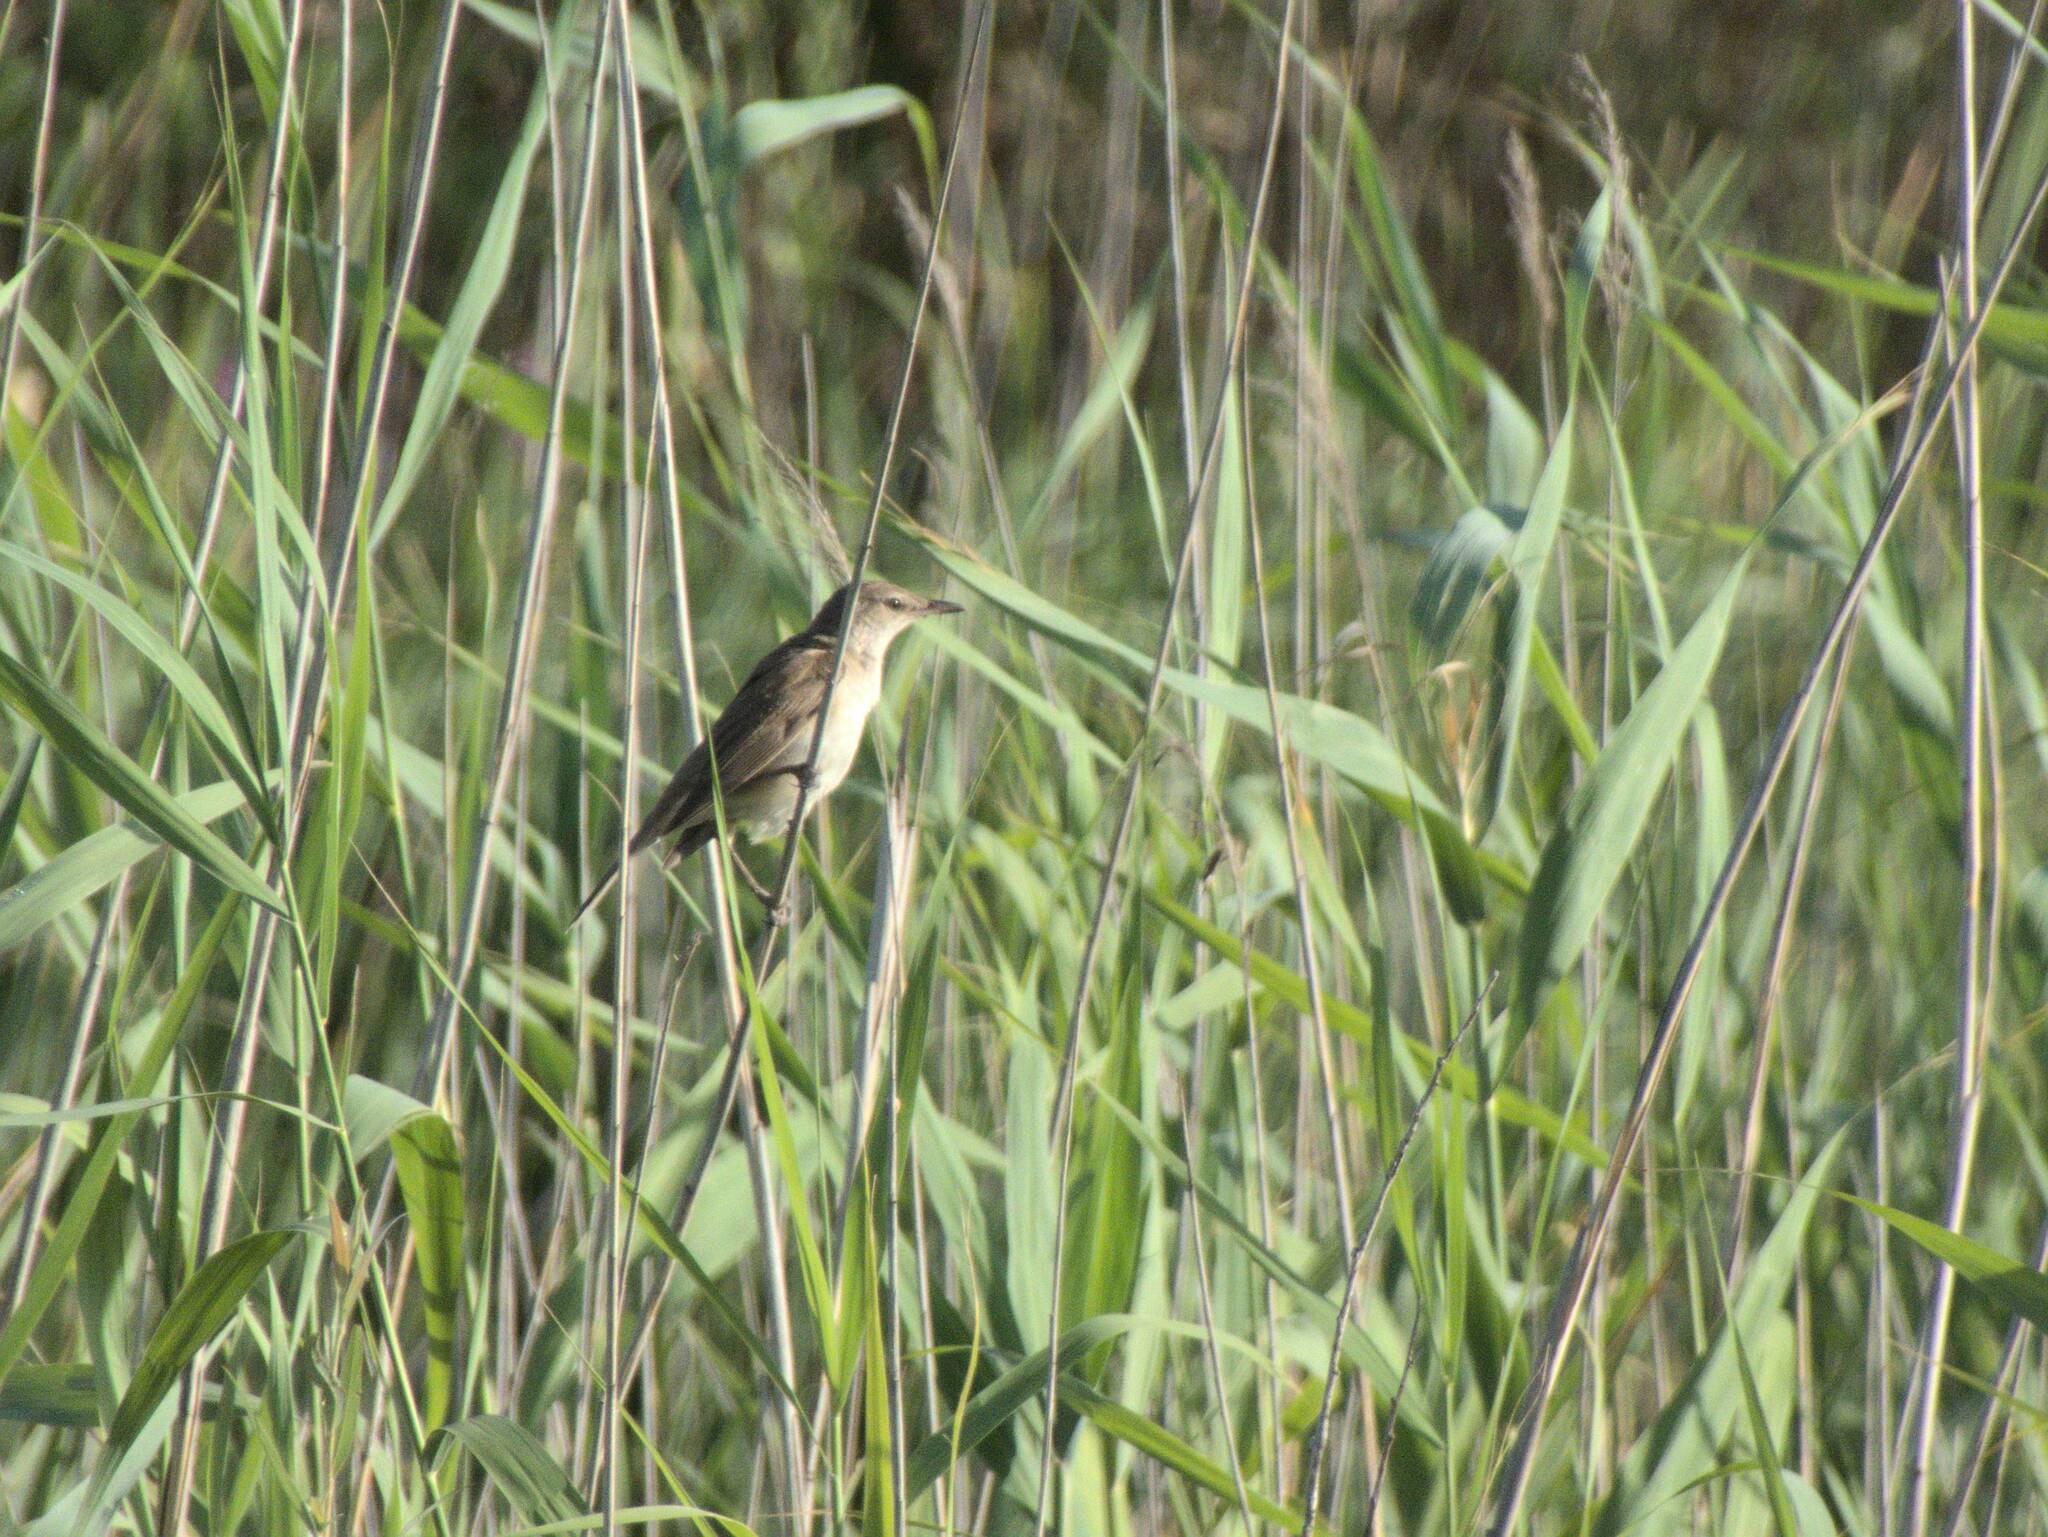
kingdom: Animalia
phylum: Chordata
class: Aves
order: Passeriformes
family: Acrocephalidae
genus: Acrocephalus
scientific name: Acrocephalus arundinaceus
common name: Great reed warbler
